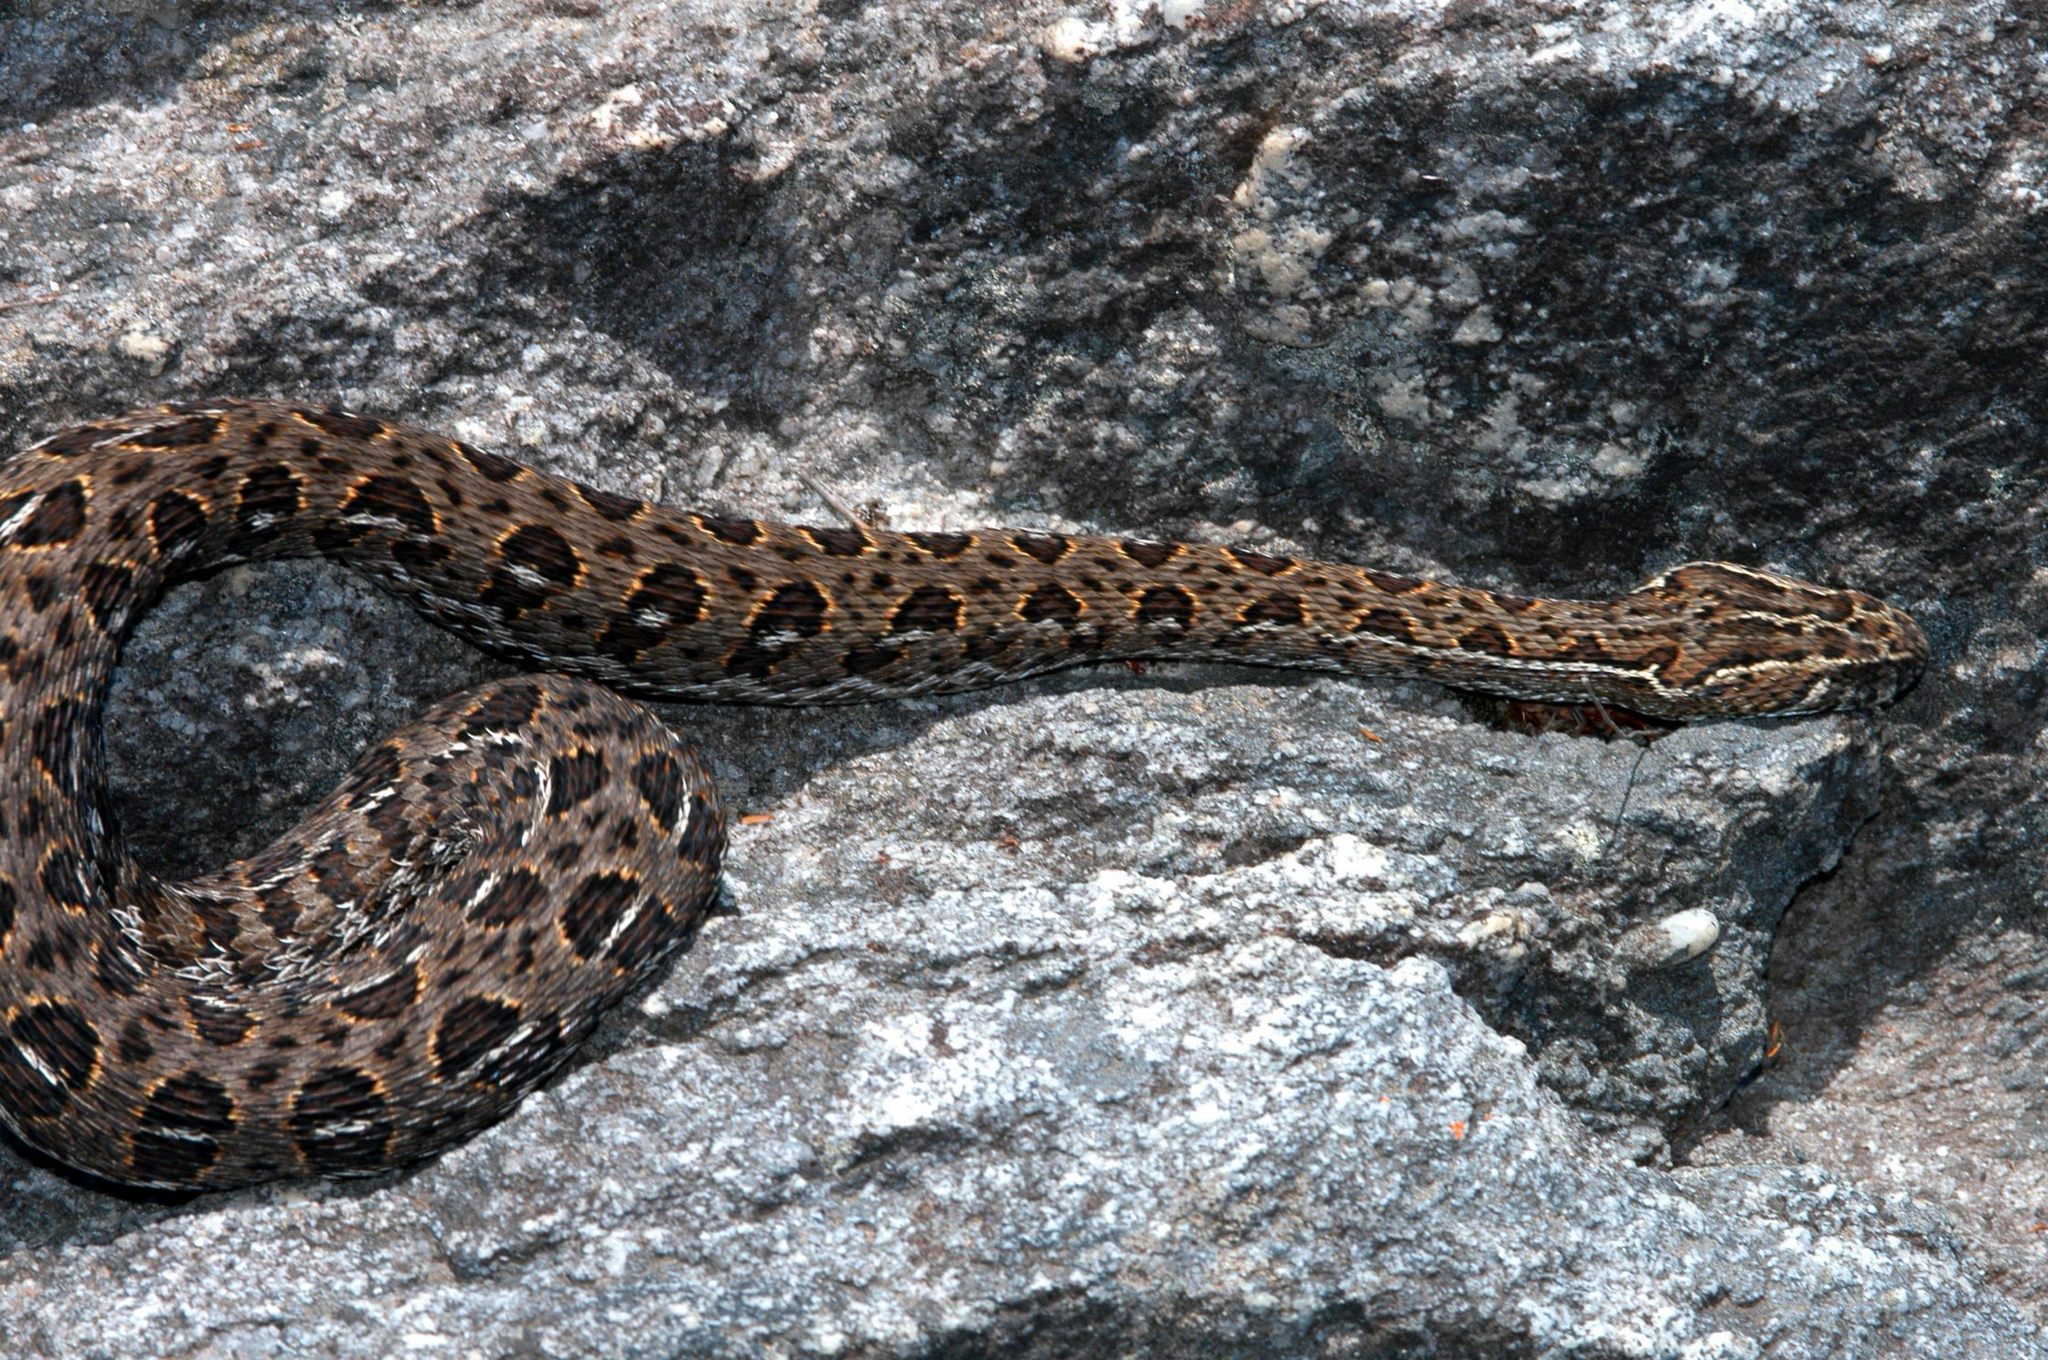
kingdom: Animalia
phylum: Chordata
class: Squamata
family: Viperidae
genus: Bitis
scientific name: Bitis atropos
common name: Mountain adder
